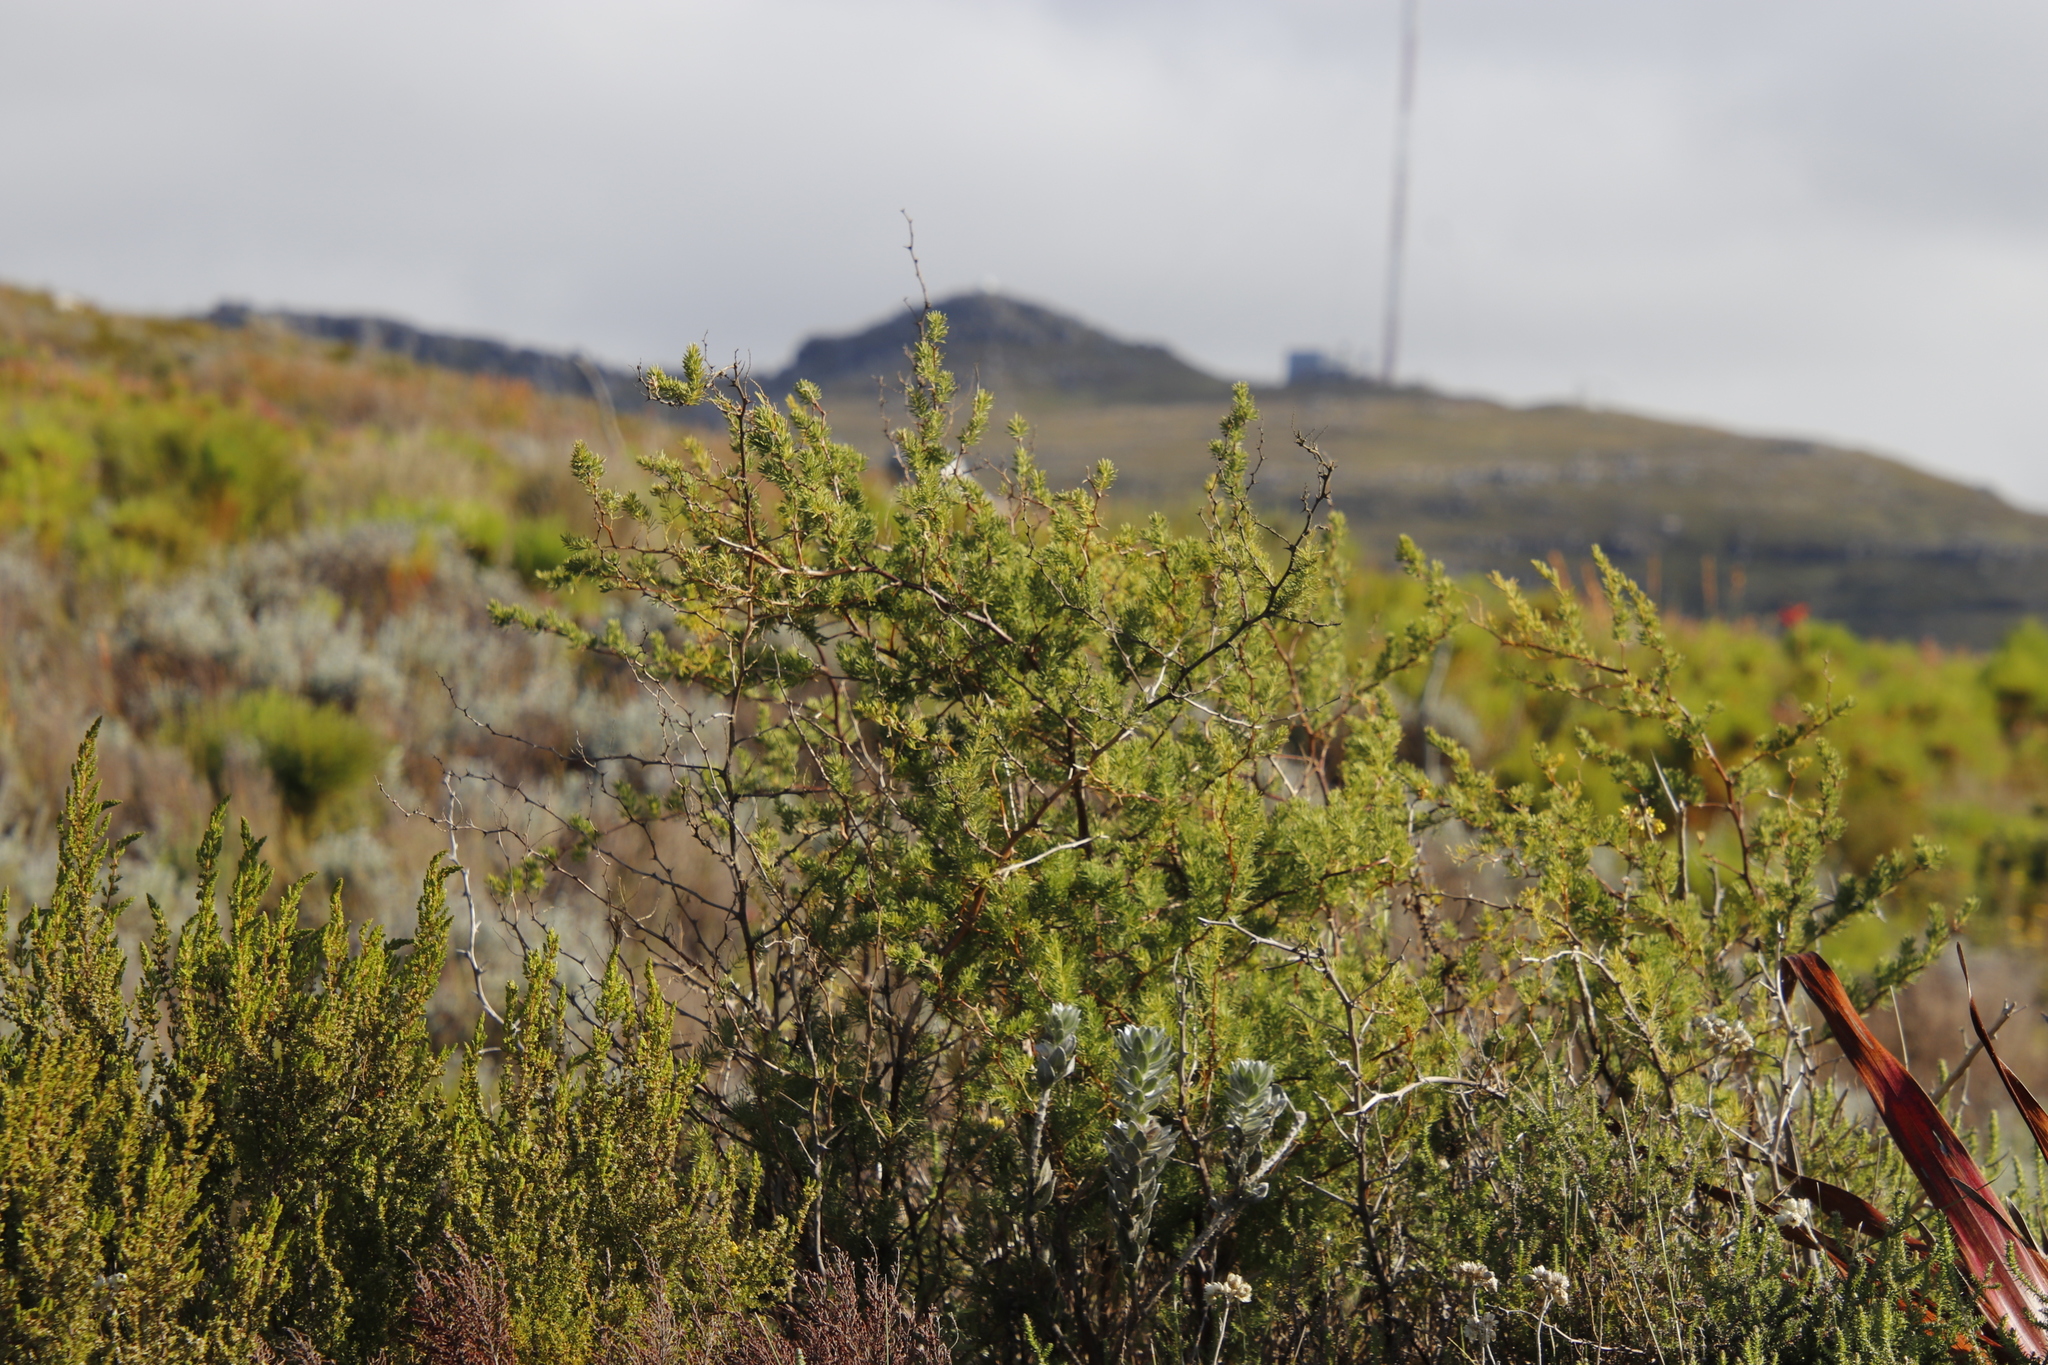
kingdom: Plantae
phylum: Tracheophyta
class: Liliopsida
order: Asparagales
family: Asparagaceae
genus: Asparagus
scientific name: Asparagus rubicundus
